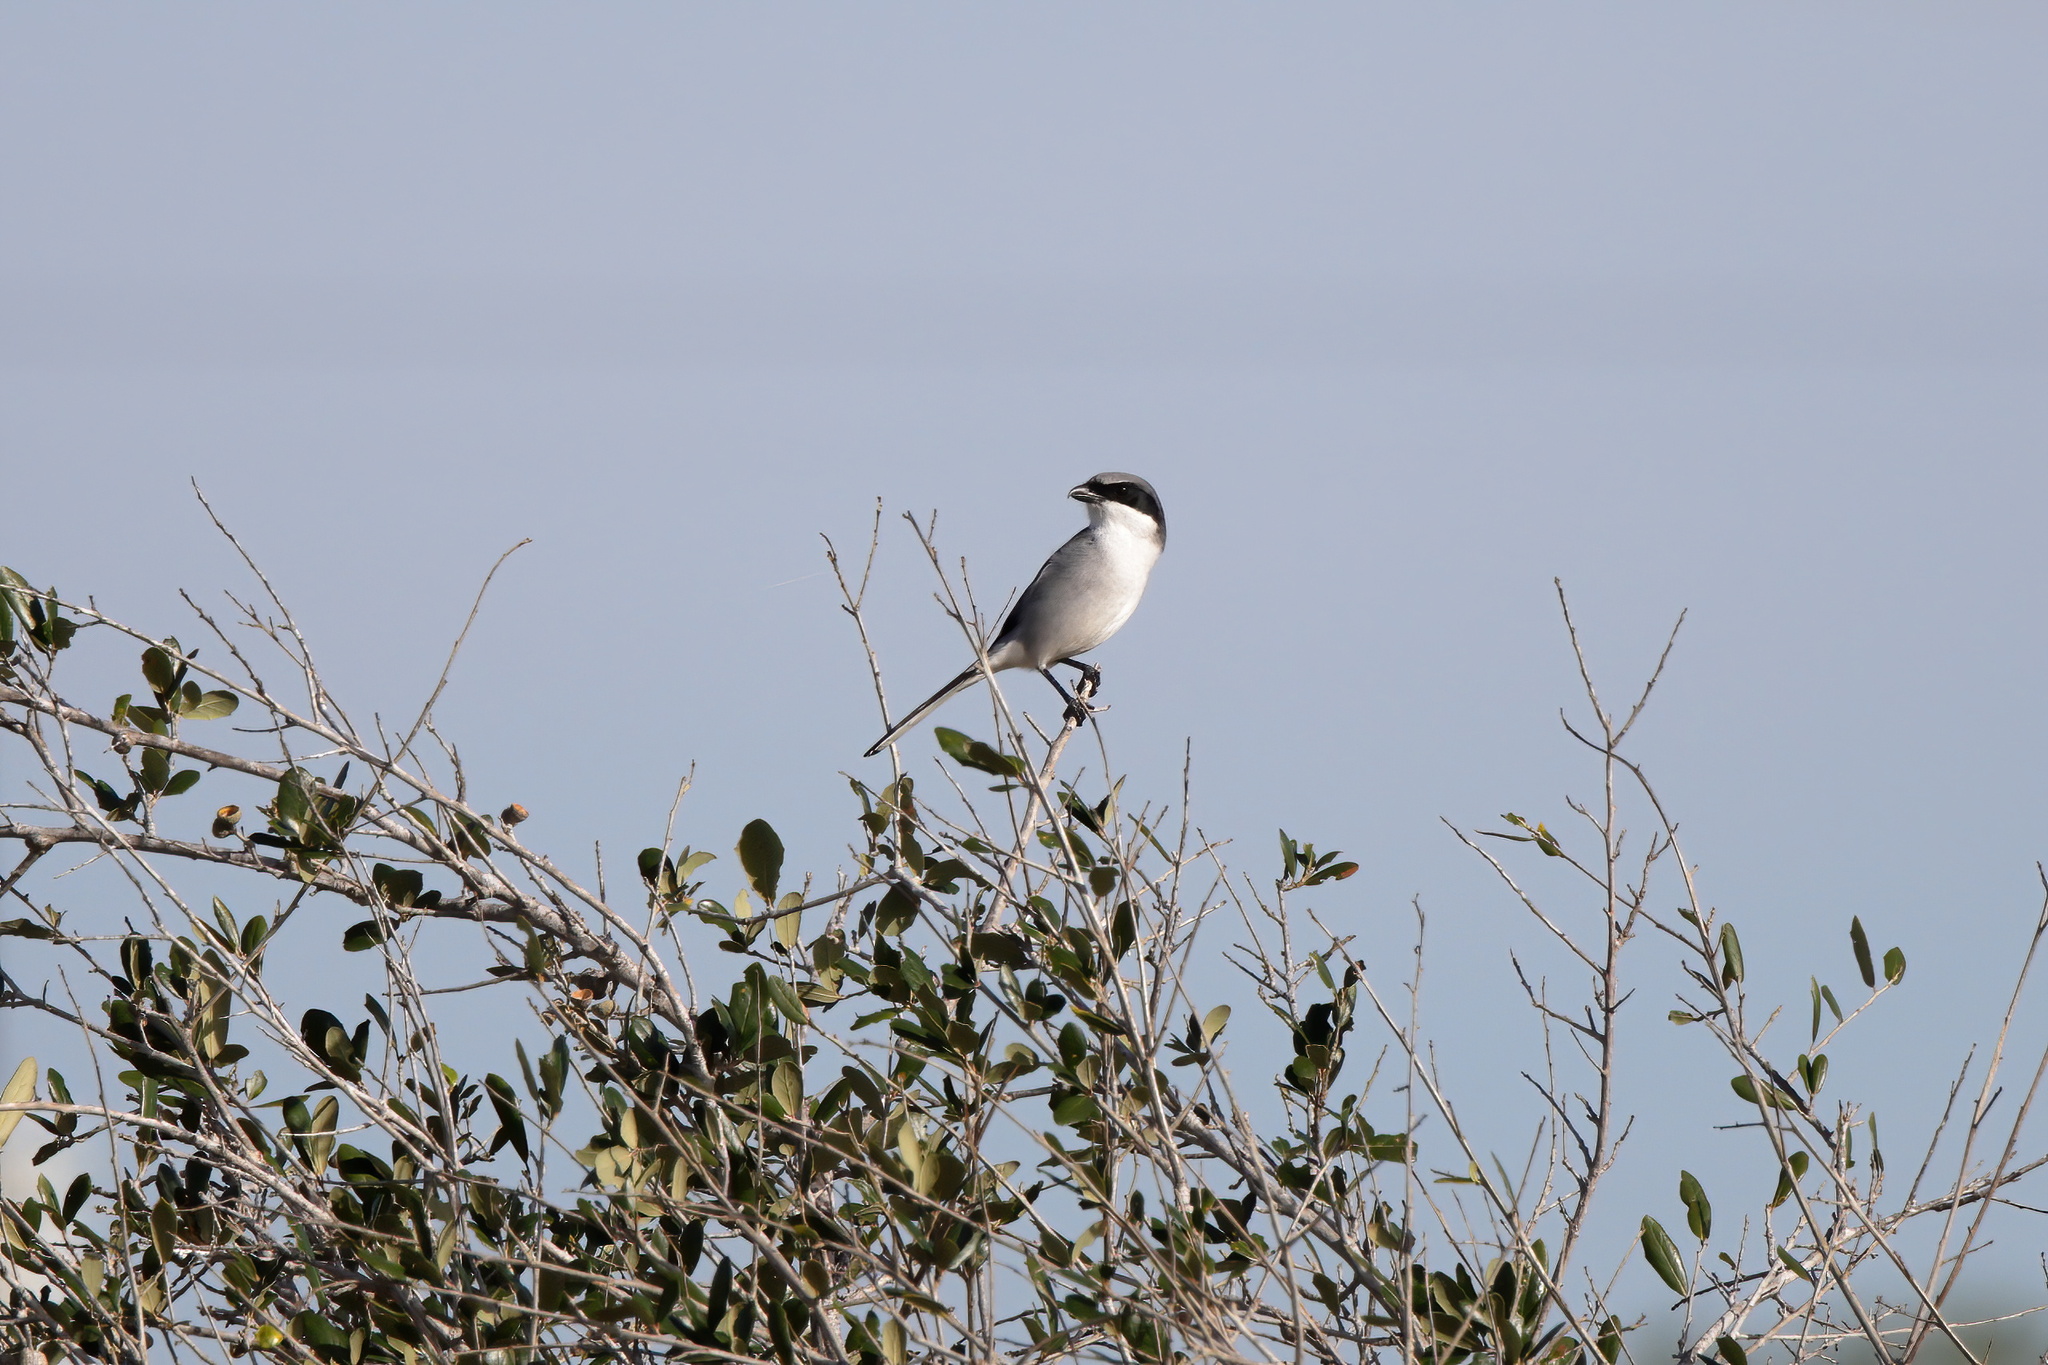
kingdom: Animalia
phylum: Chordata
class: Aves
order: Passeriformes
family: Laniidae
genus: Lanius
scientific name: Lanius ludovicianus
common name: Loggerhead shrike
